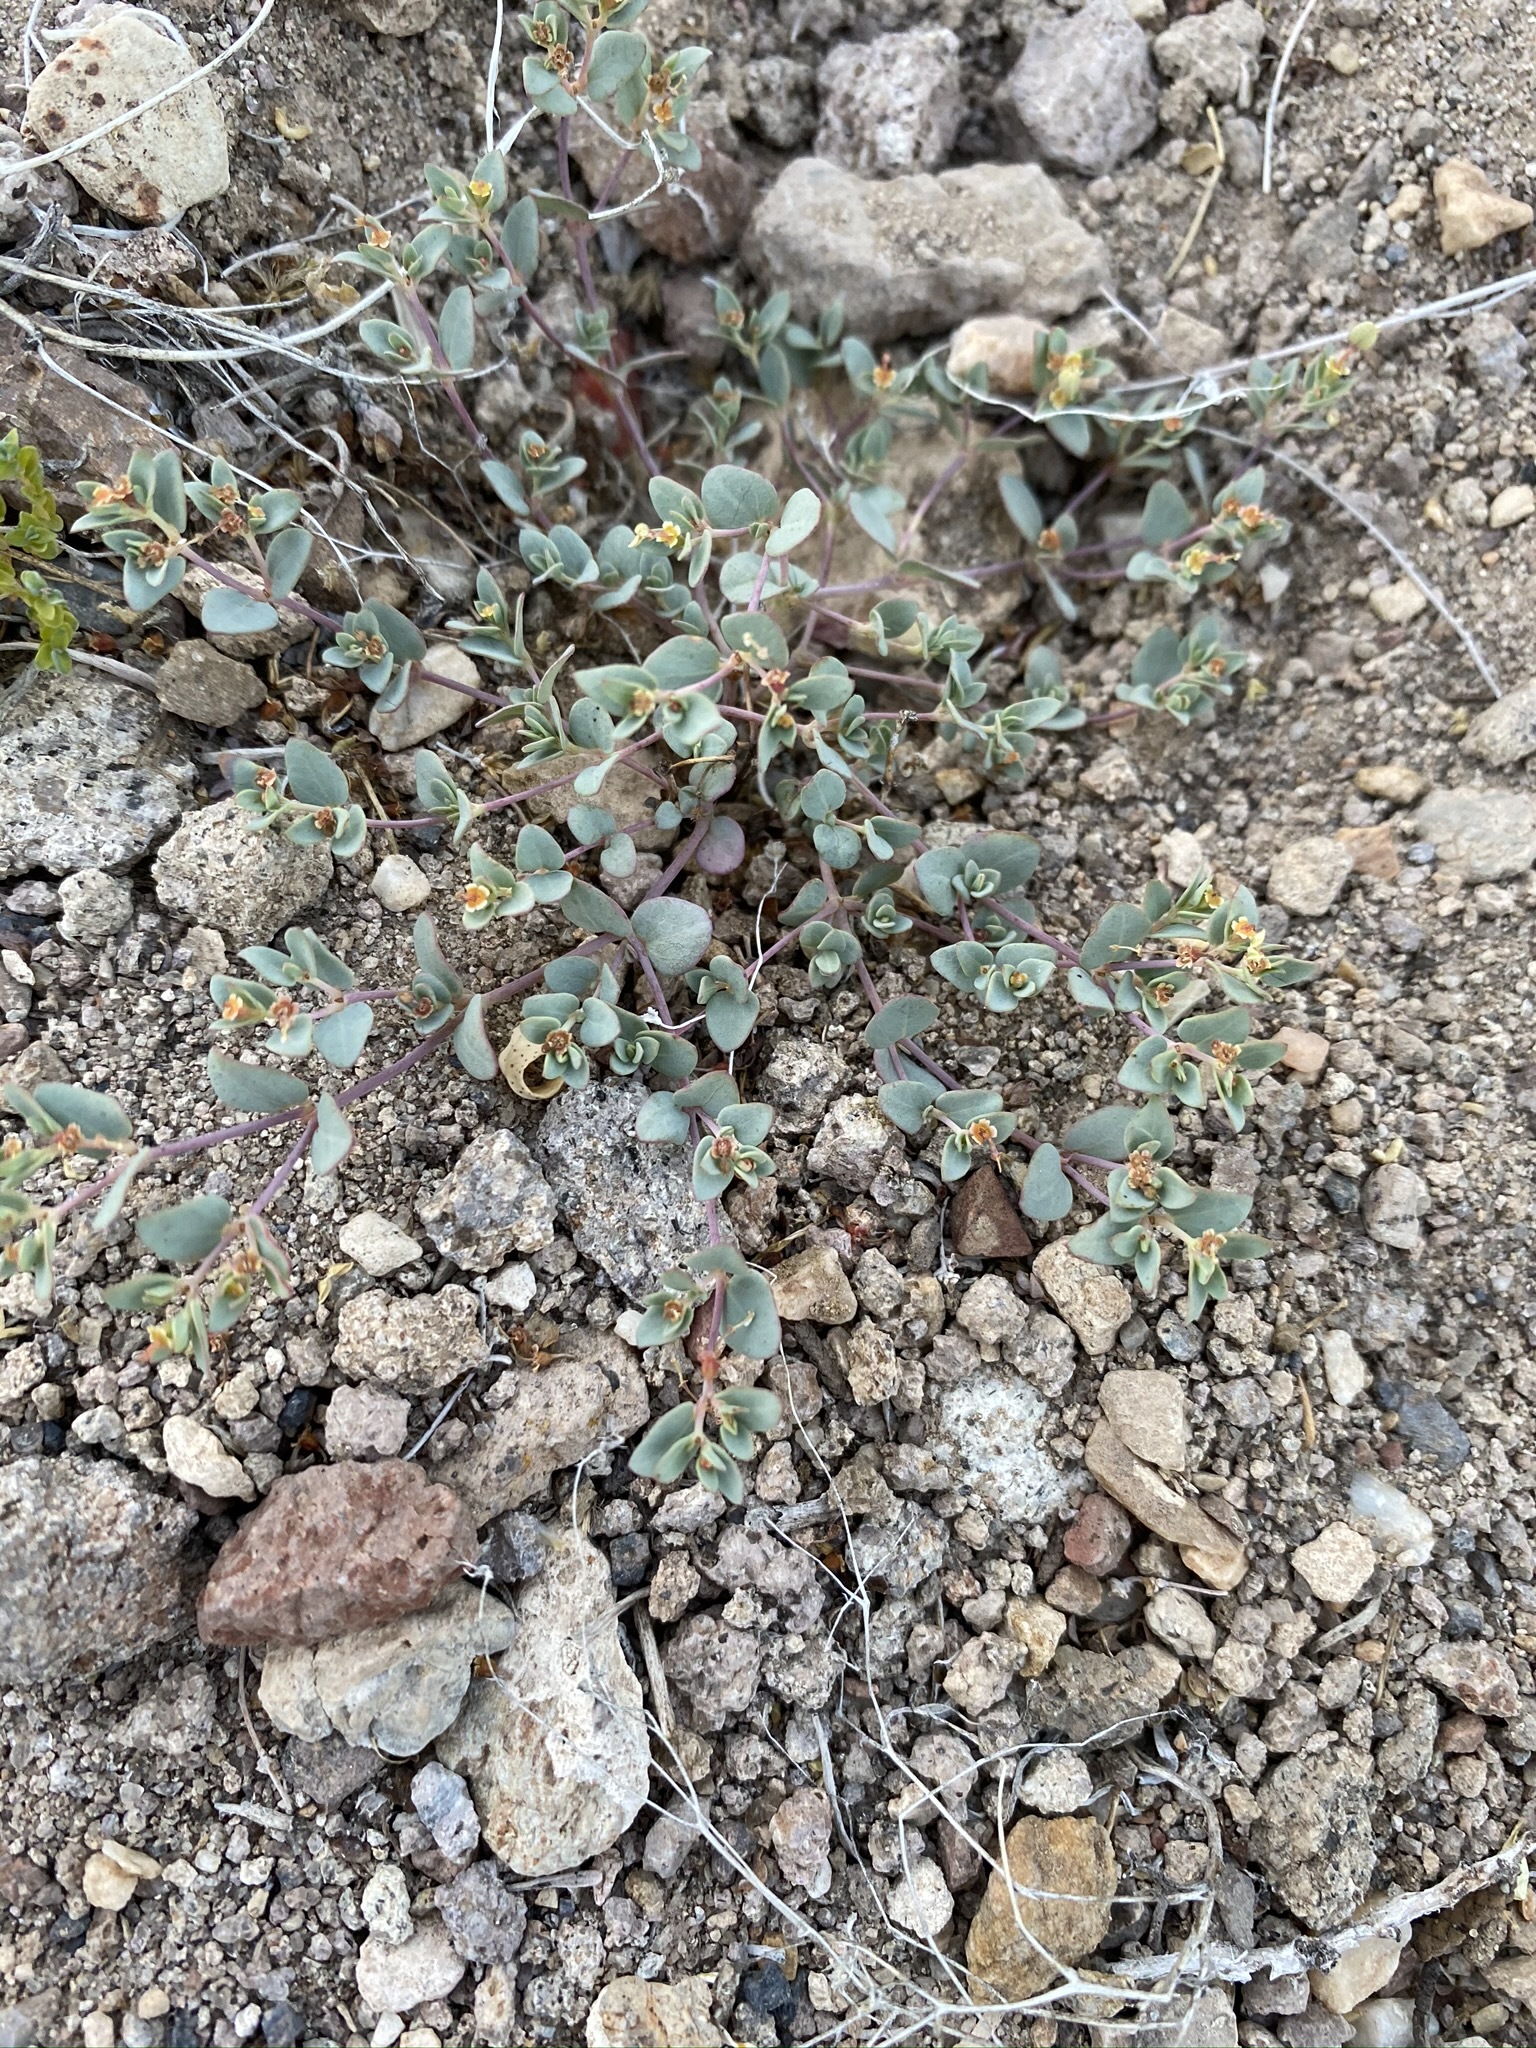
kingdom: Plantae
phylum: Tracheophyta
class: Magnoliopsida
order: Malpighiales
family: Euphorbiaceae
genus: Euphorbia
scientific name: Euphorbia fendleri
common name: Fendler's euphorbia
